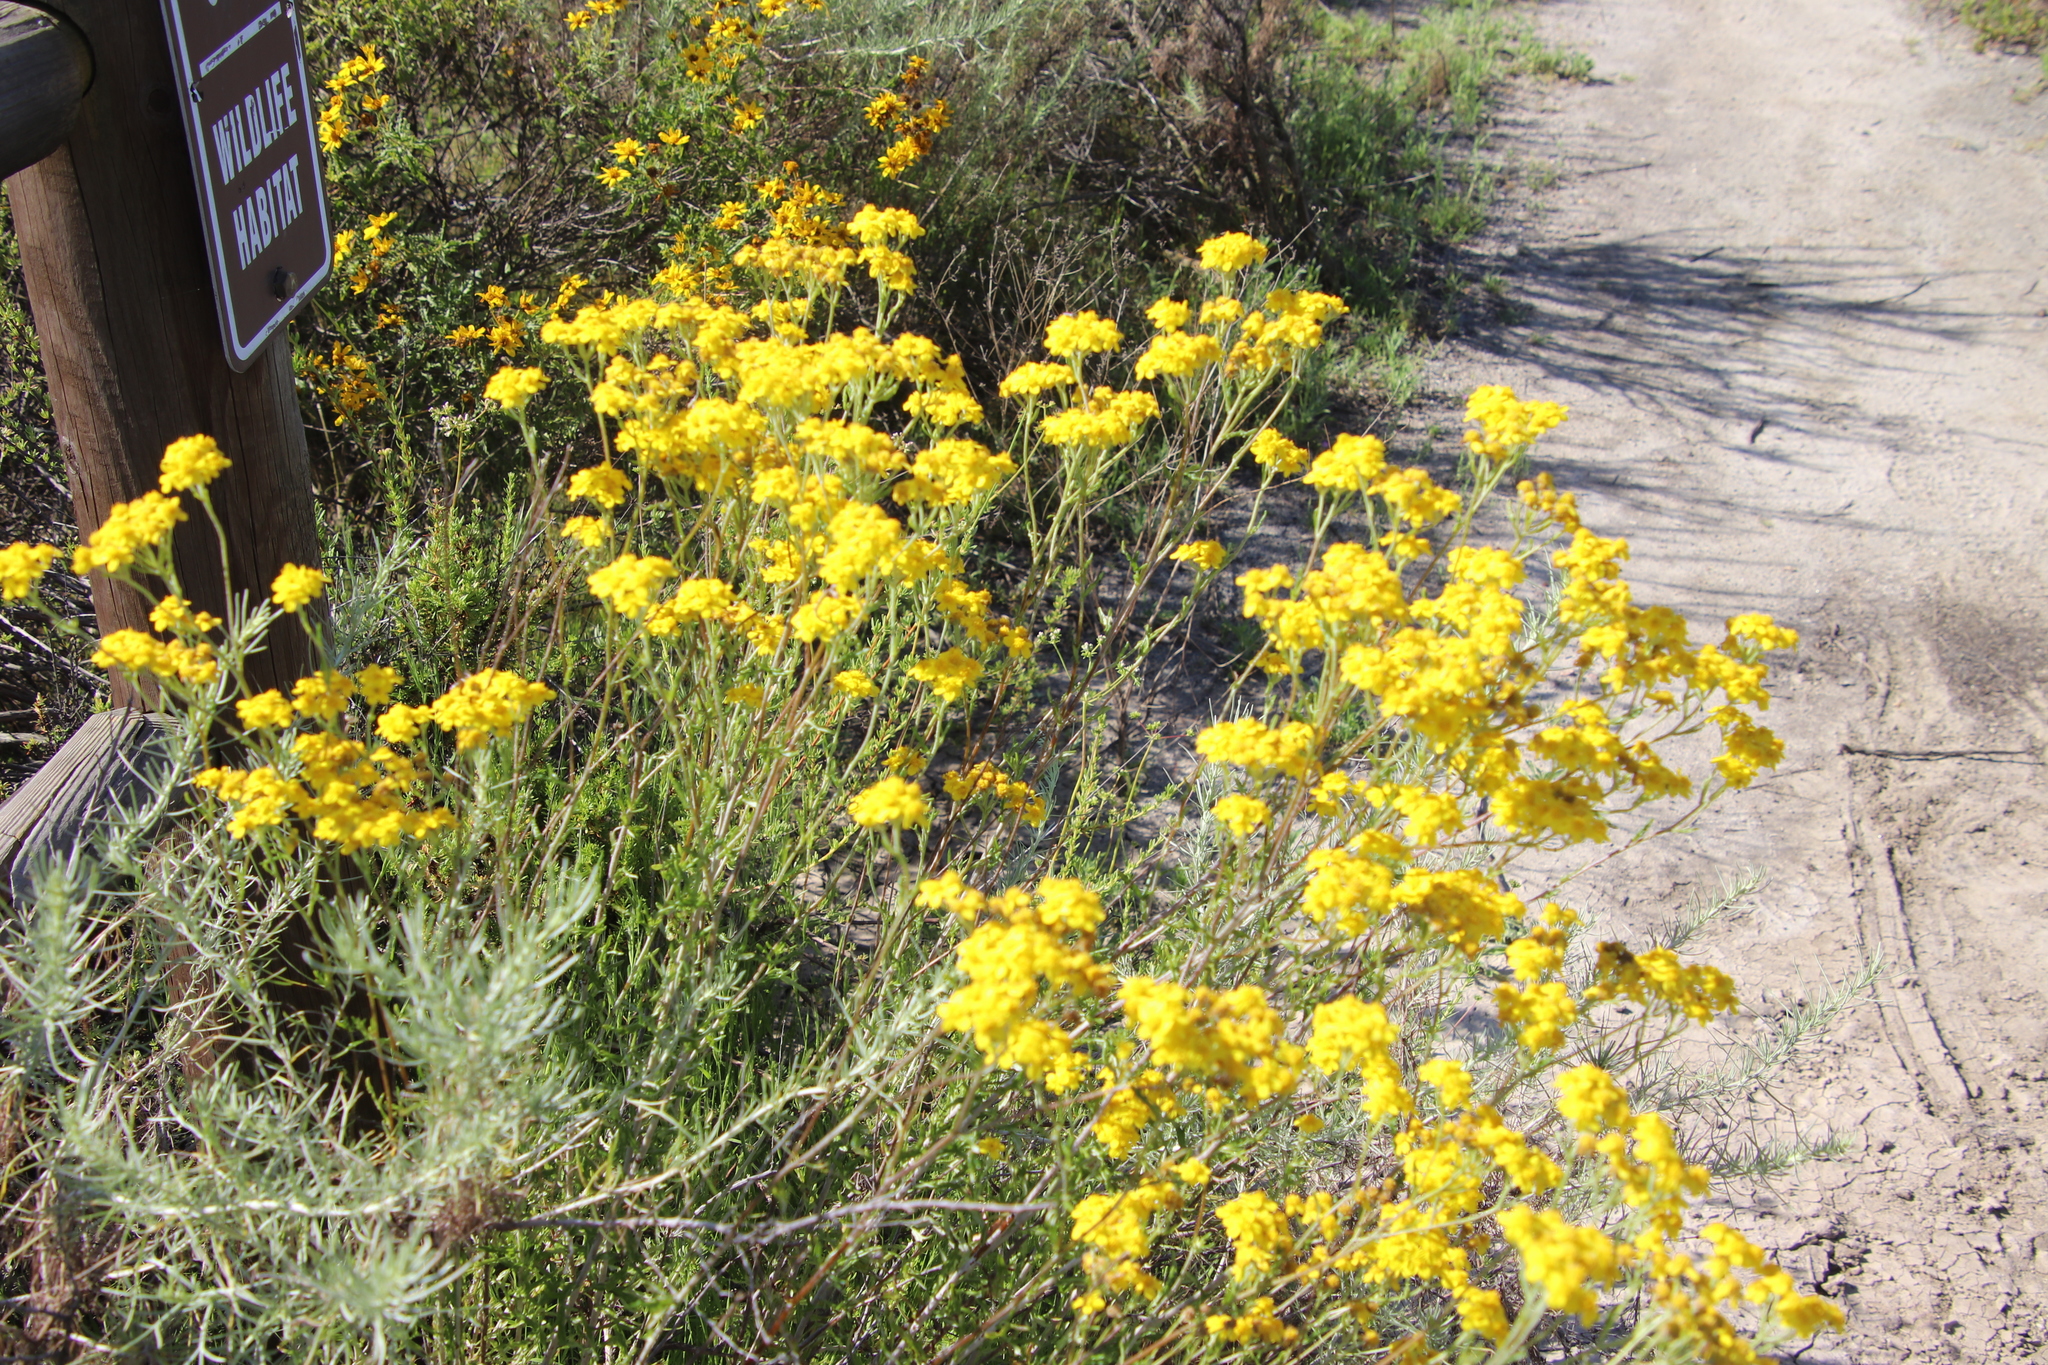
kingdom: Plantae
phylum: Tracheophyta
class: Magnoliopsida
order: Asterales
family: Asteraceae
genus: Eriophyllum
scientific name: Eriophyllum confertiflorum
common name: Golden-yarrow
